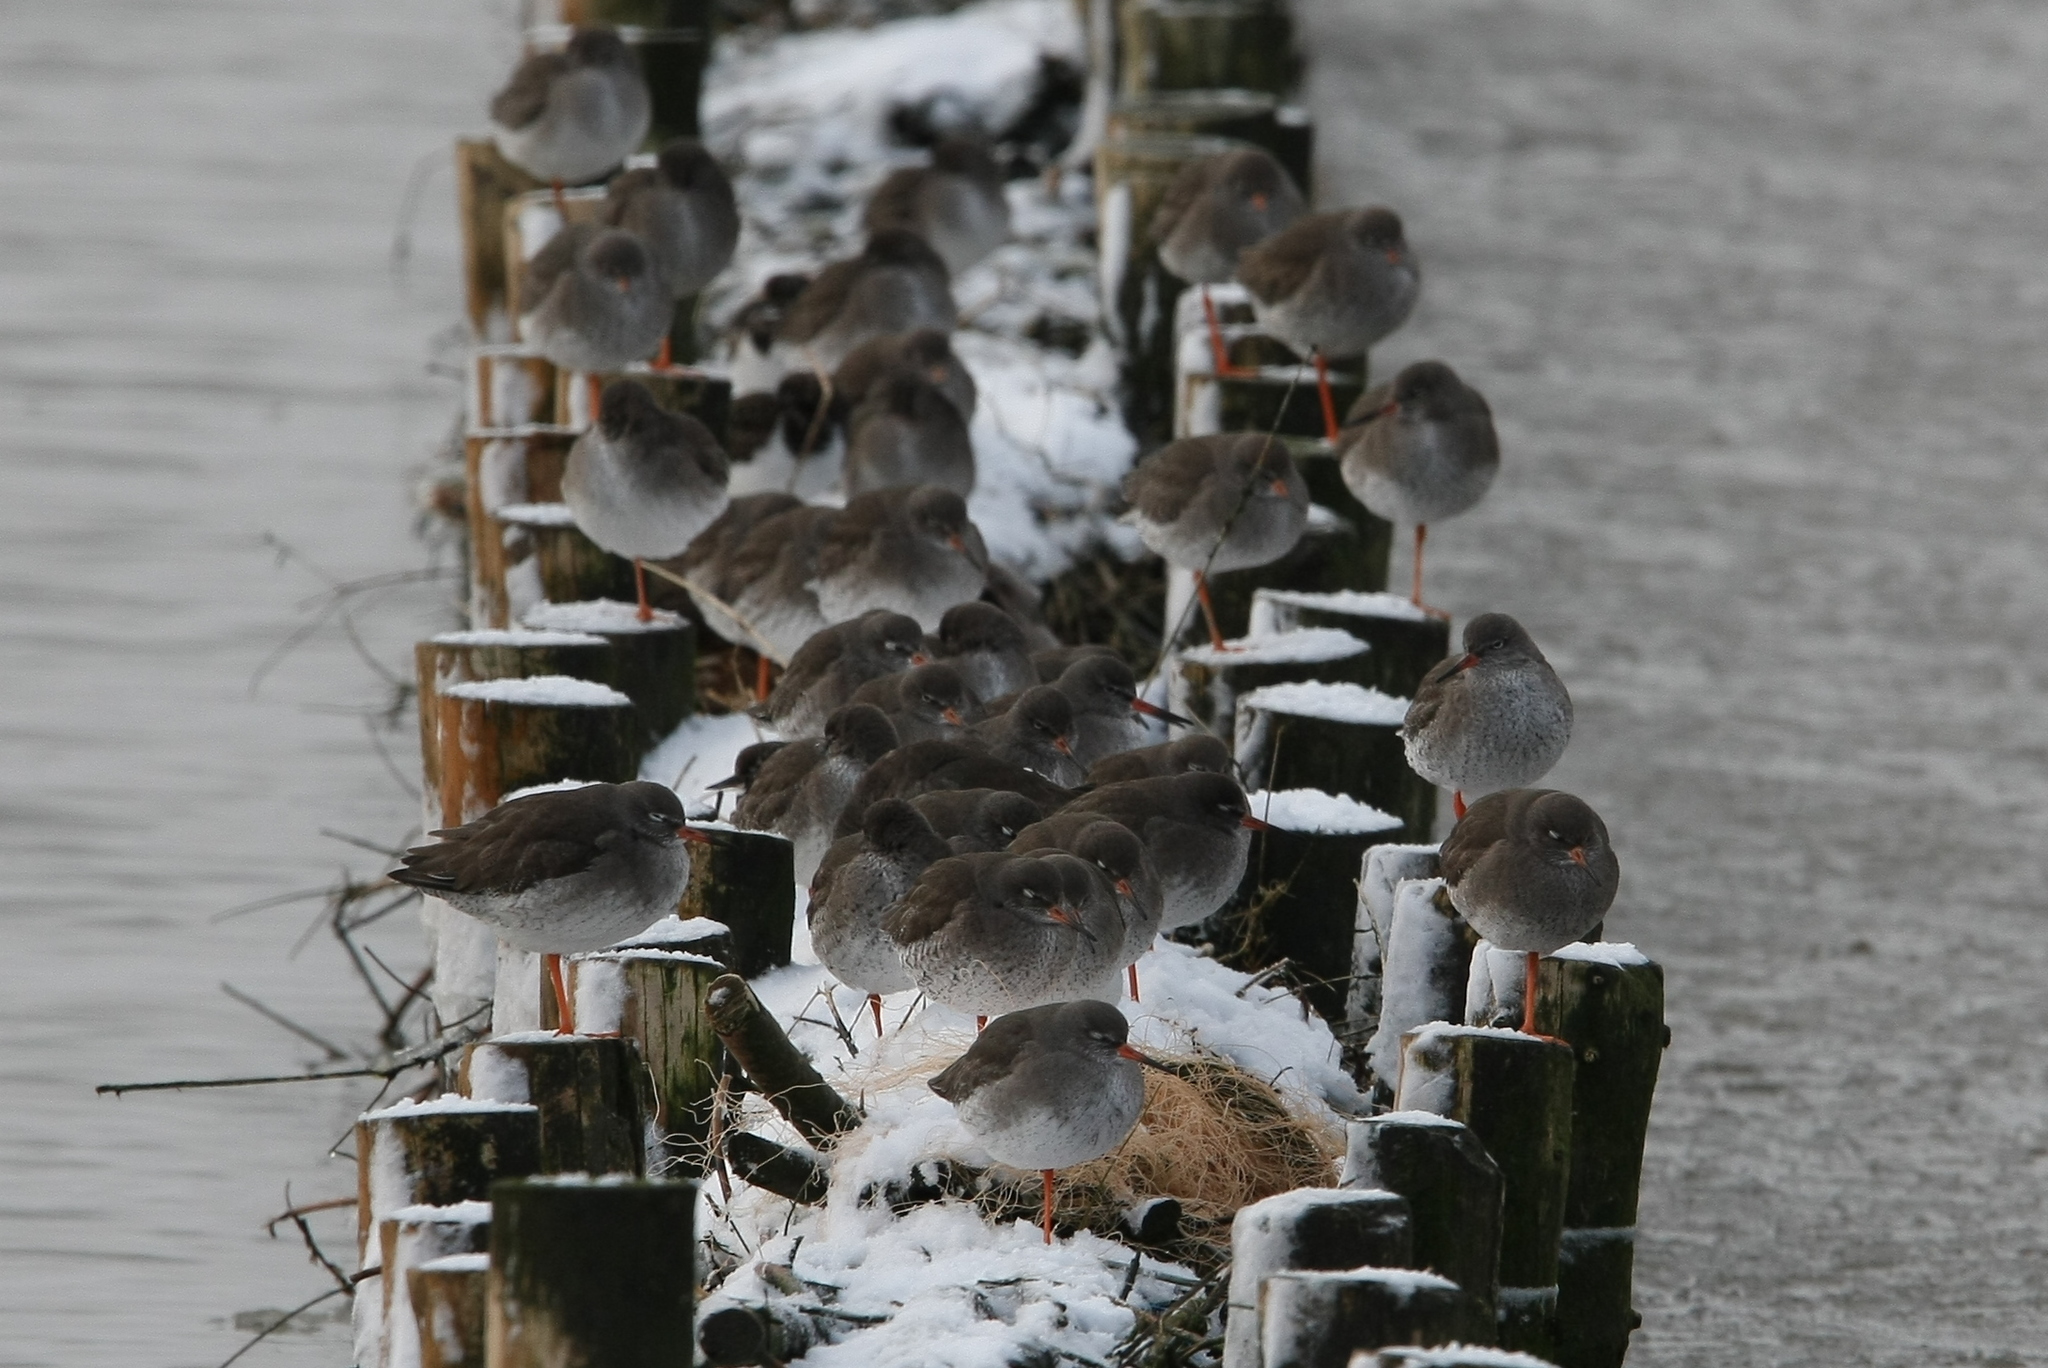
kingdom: Animalia
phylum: Chordata
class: Aves
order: Charadriiformes
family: Scolopacidae
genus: Tringa
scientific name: Tringa totanus
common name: Common redshank
